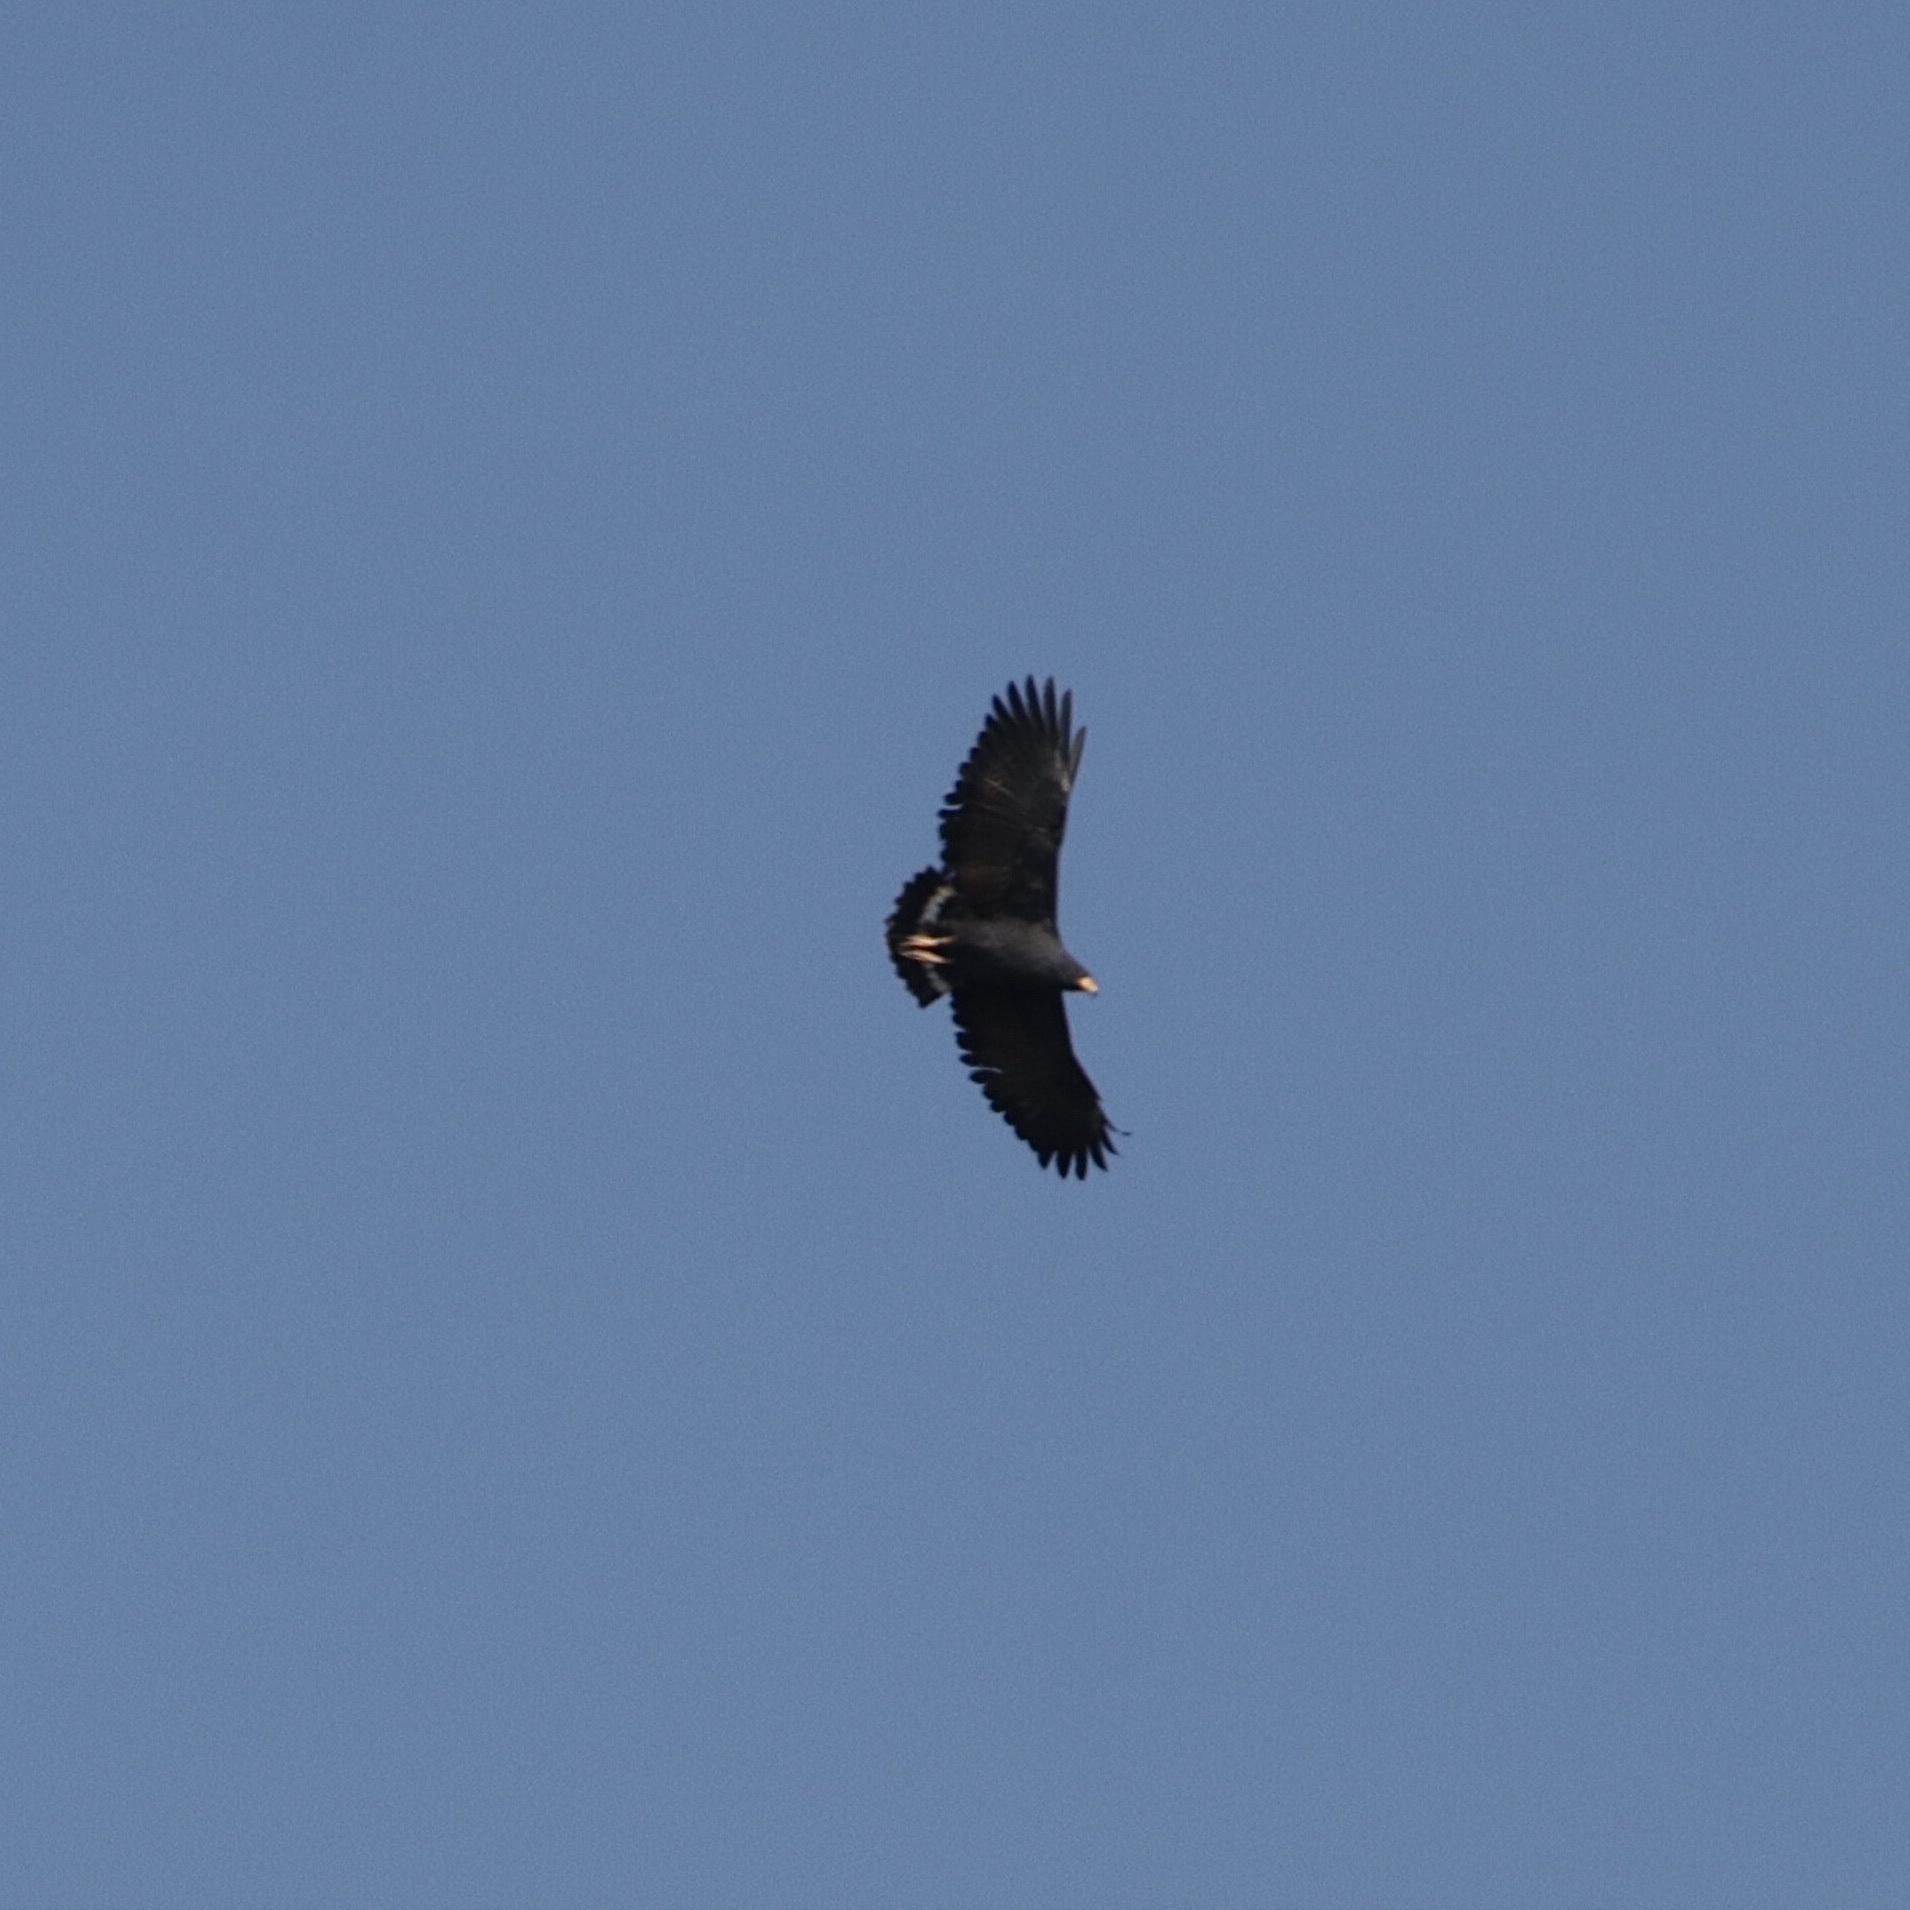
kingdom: Animalia
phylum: Chordata
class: Aves
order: Accipitriformes
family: Accipitridae
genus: Buteogallus
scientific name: Buteogallus anthracinus
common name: Common black hawk
